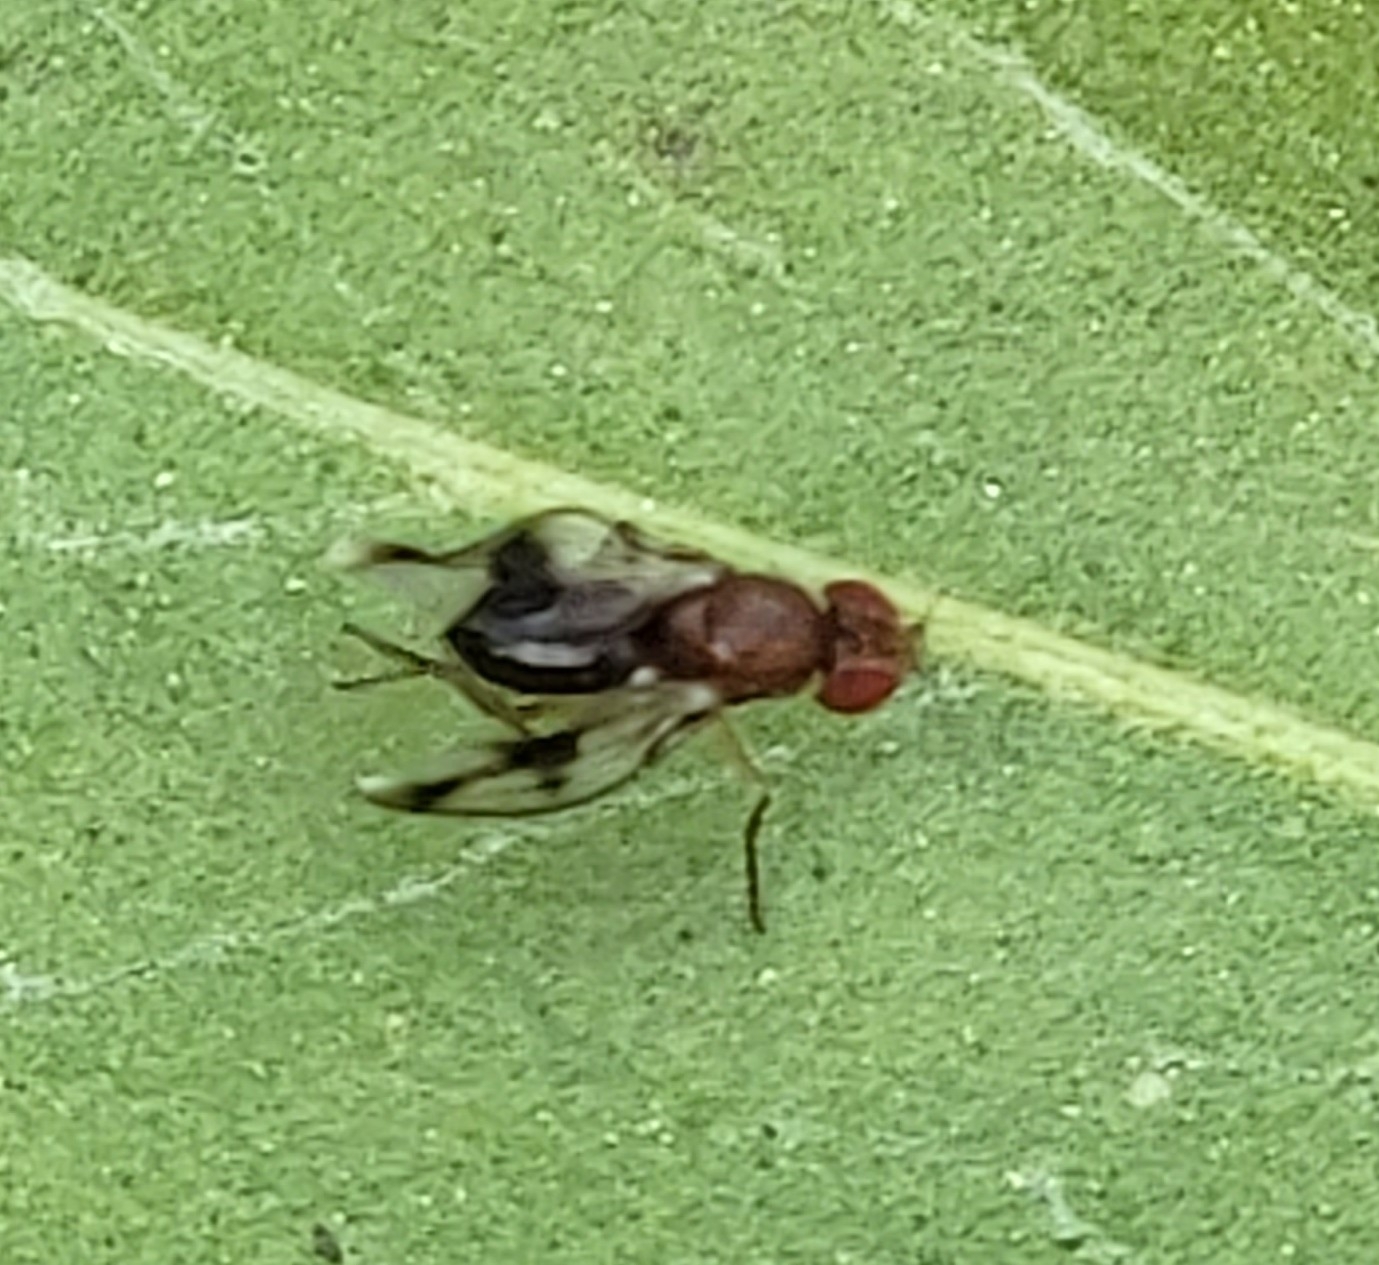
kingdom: Animalia
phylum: Arthropoda
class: Insecta
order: Diptera
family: Drosophilidae
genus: Chymomyza
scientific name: Chymomyza amoena
